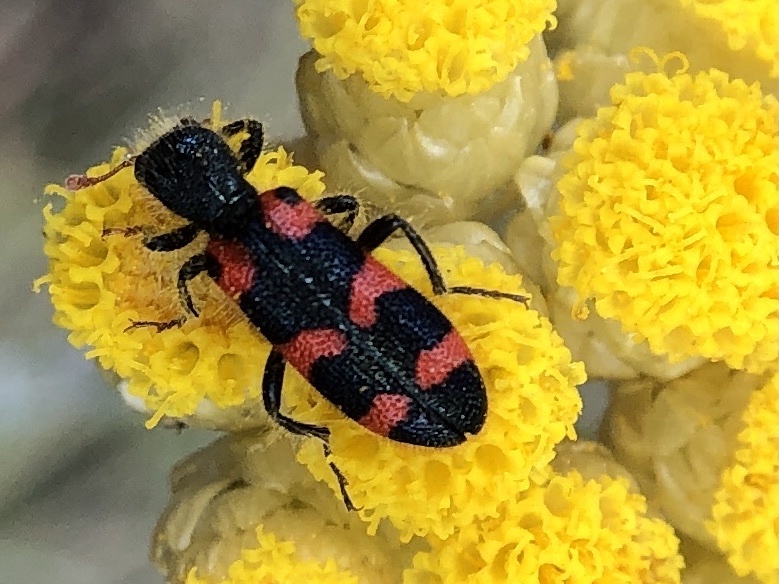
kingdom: Animalia
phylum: Arthropoda
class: Insecta
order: Coleoptera
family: Cleridae
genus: Trichodes
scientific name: Trichodes leucopsideus
